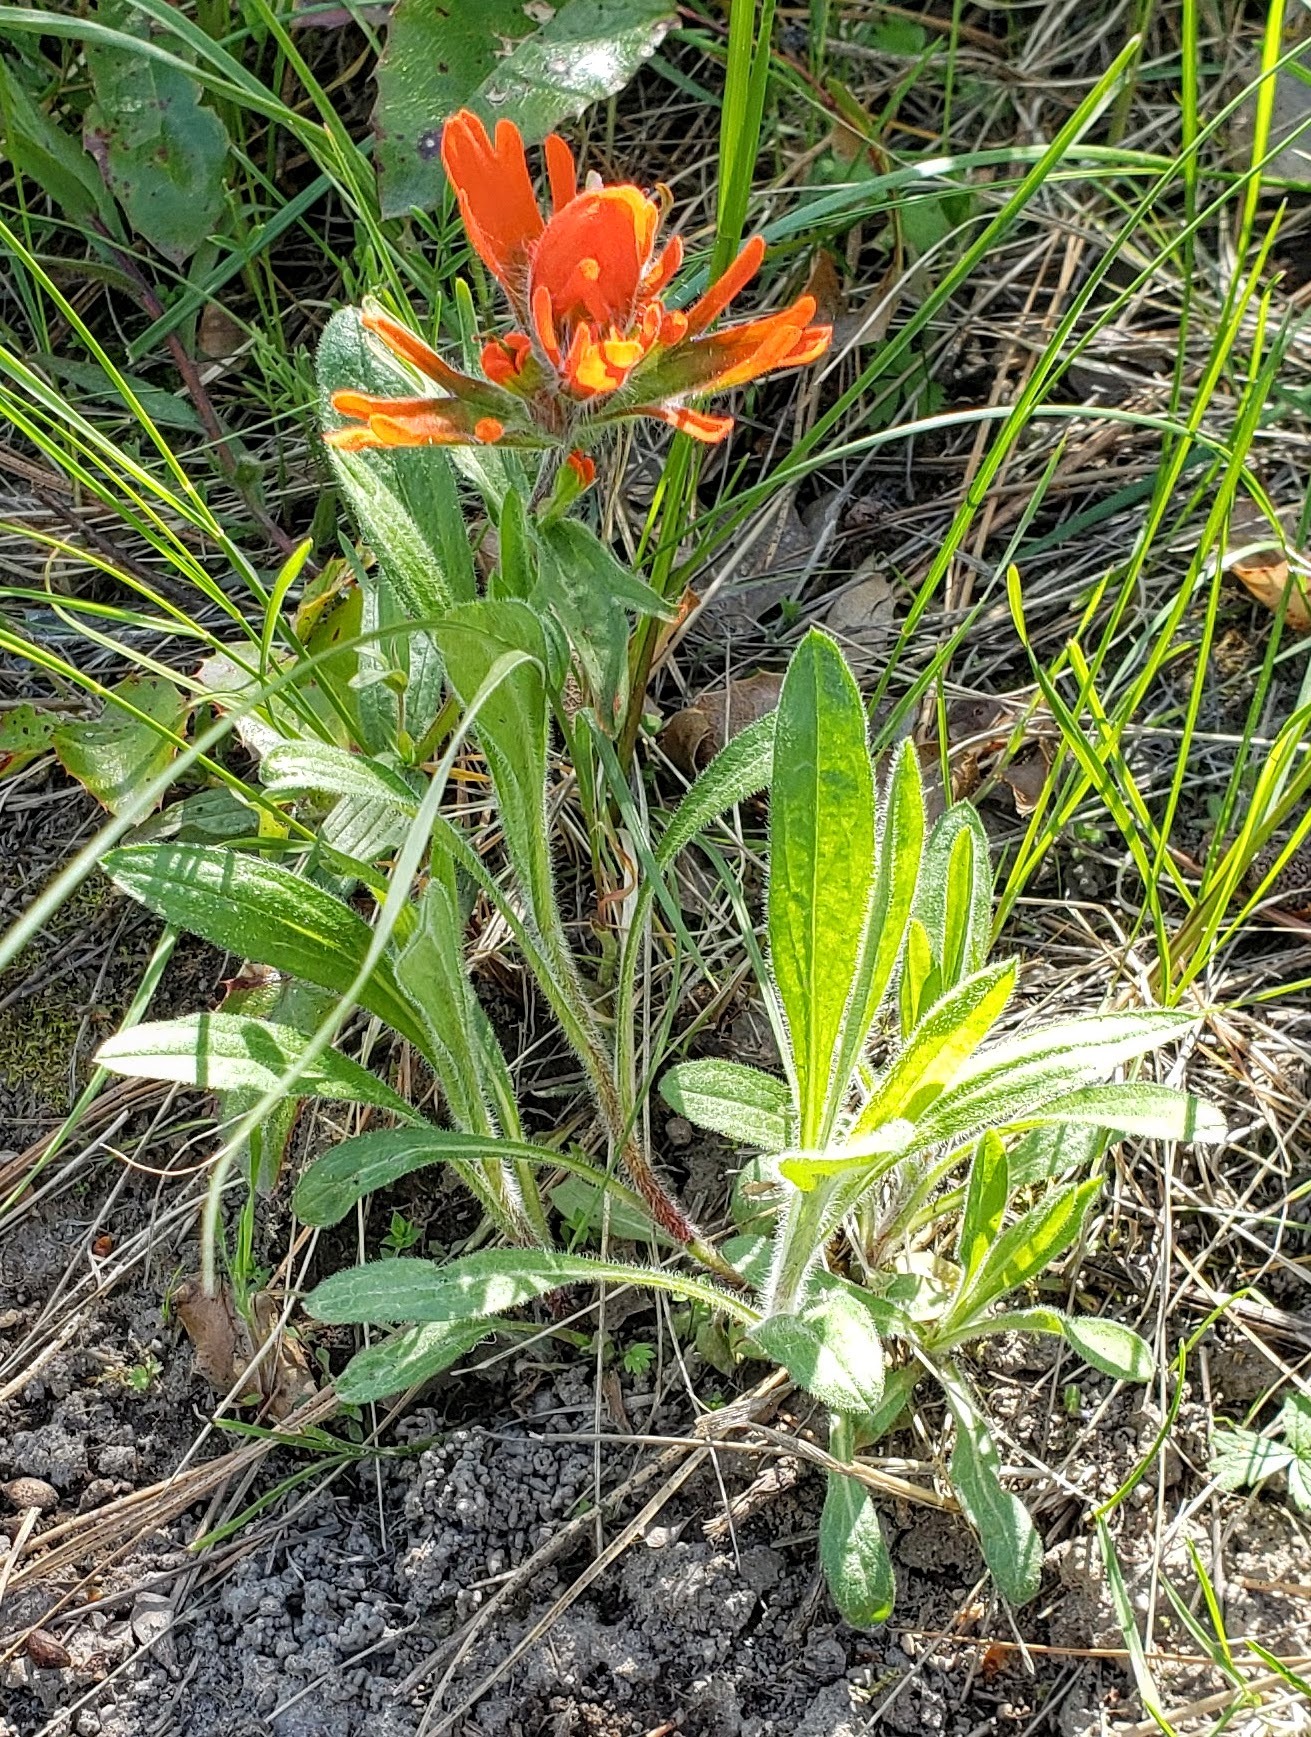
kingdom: Plantae
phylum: Tracheophyta
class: Magnoliopsida
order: Lamiales
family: Orobanchaceae
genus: Castilleja
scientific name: Castilleja hispida
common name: Bristly paintbrush
